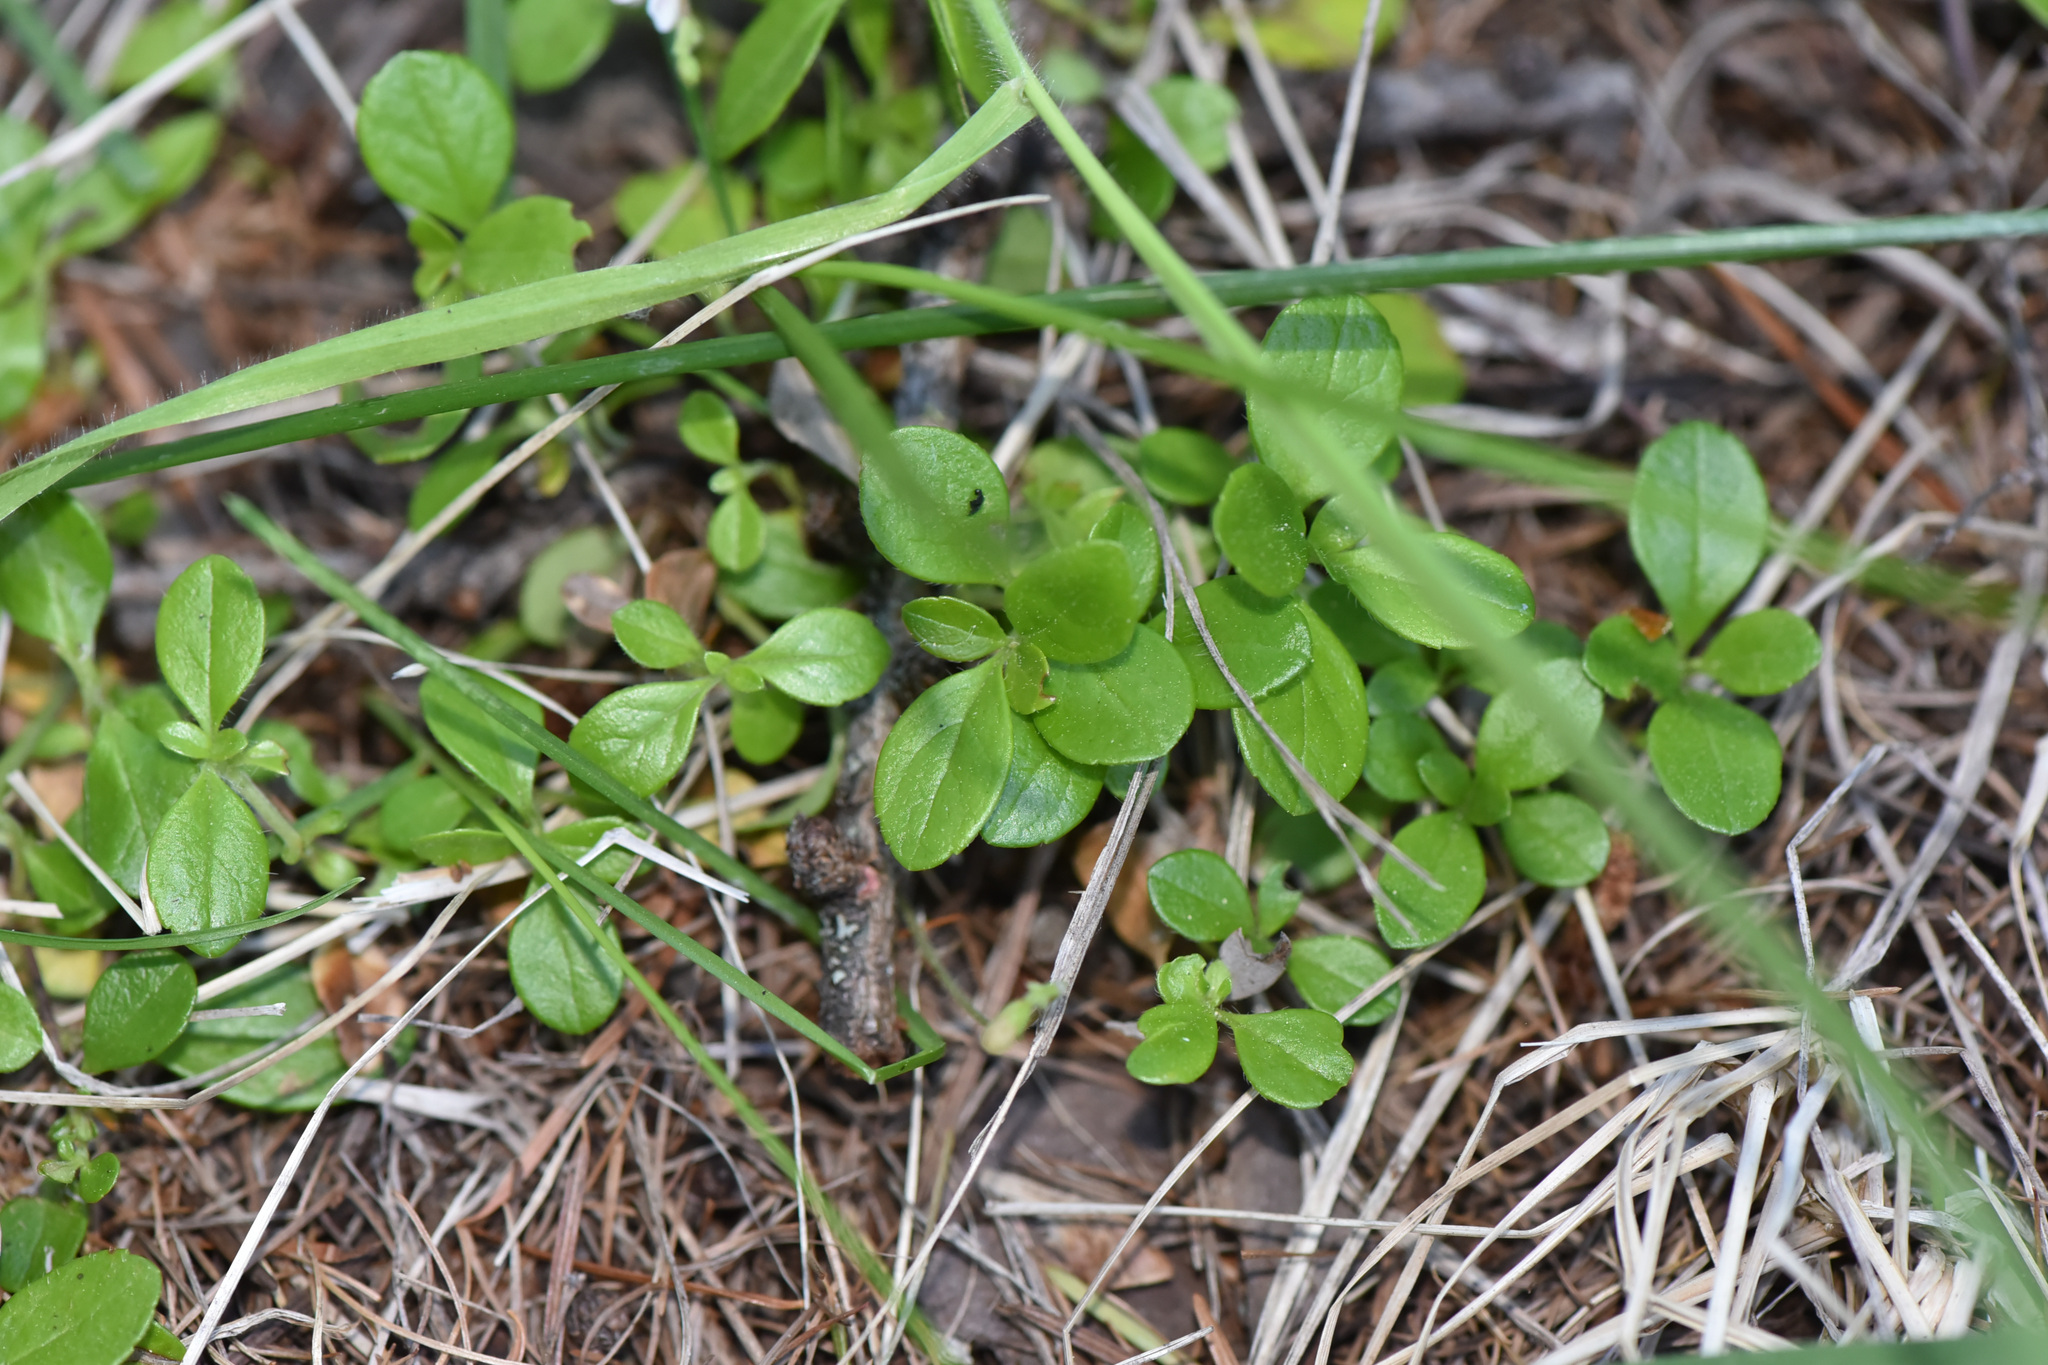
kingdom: Plantae
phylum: Tracheophyta
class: Magnoliopsida
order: Dipsacales
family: Caprifoliaceae
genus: Linnaea
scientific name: Linnaea borealis
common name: Twinflower
